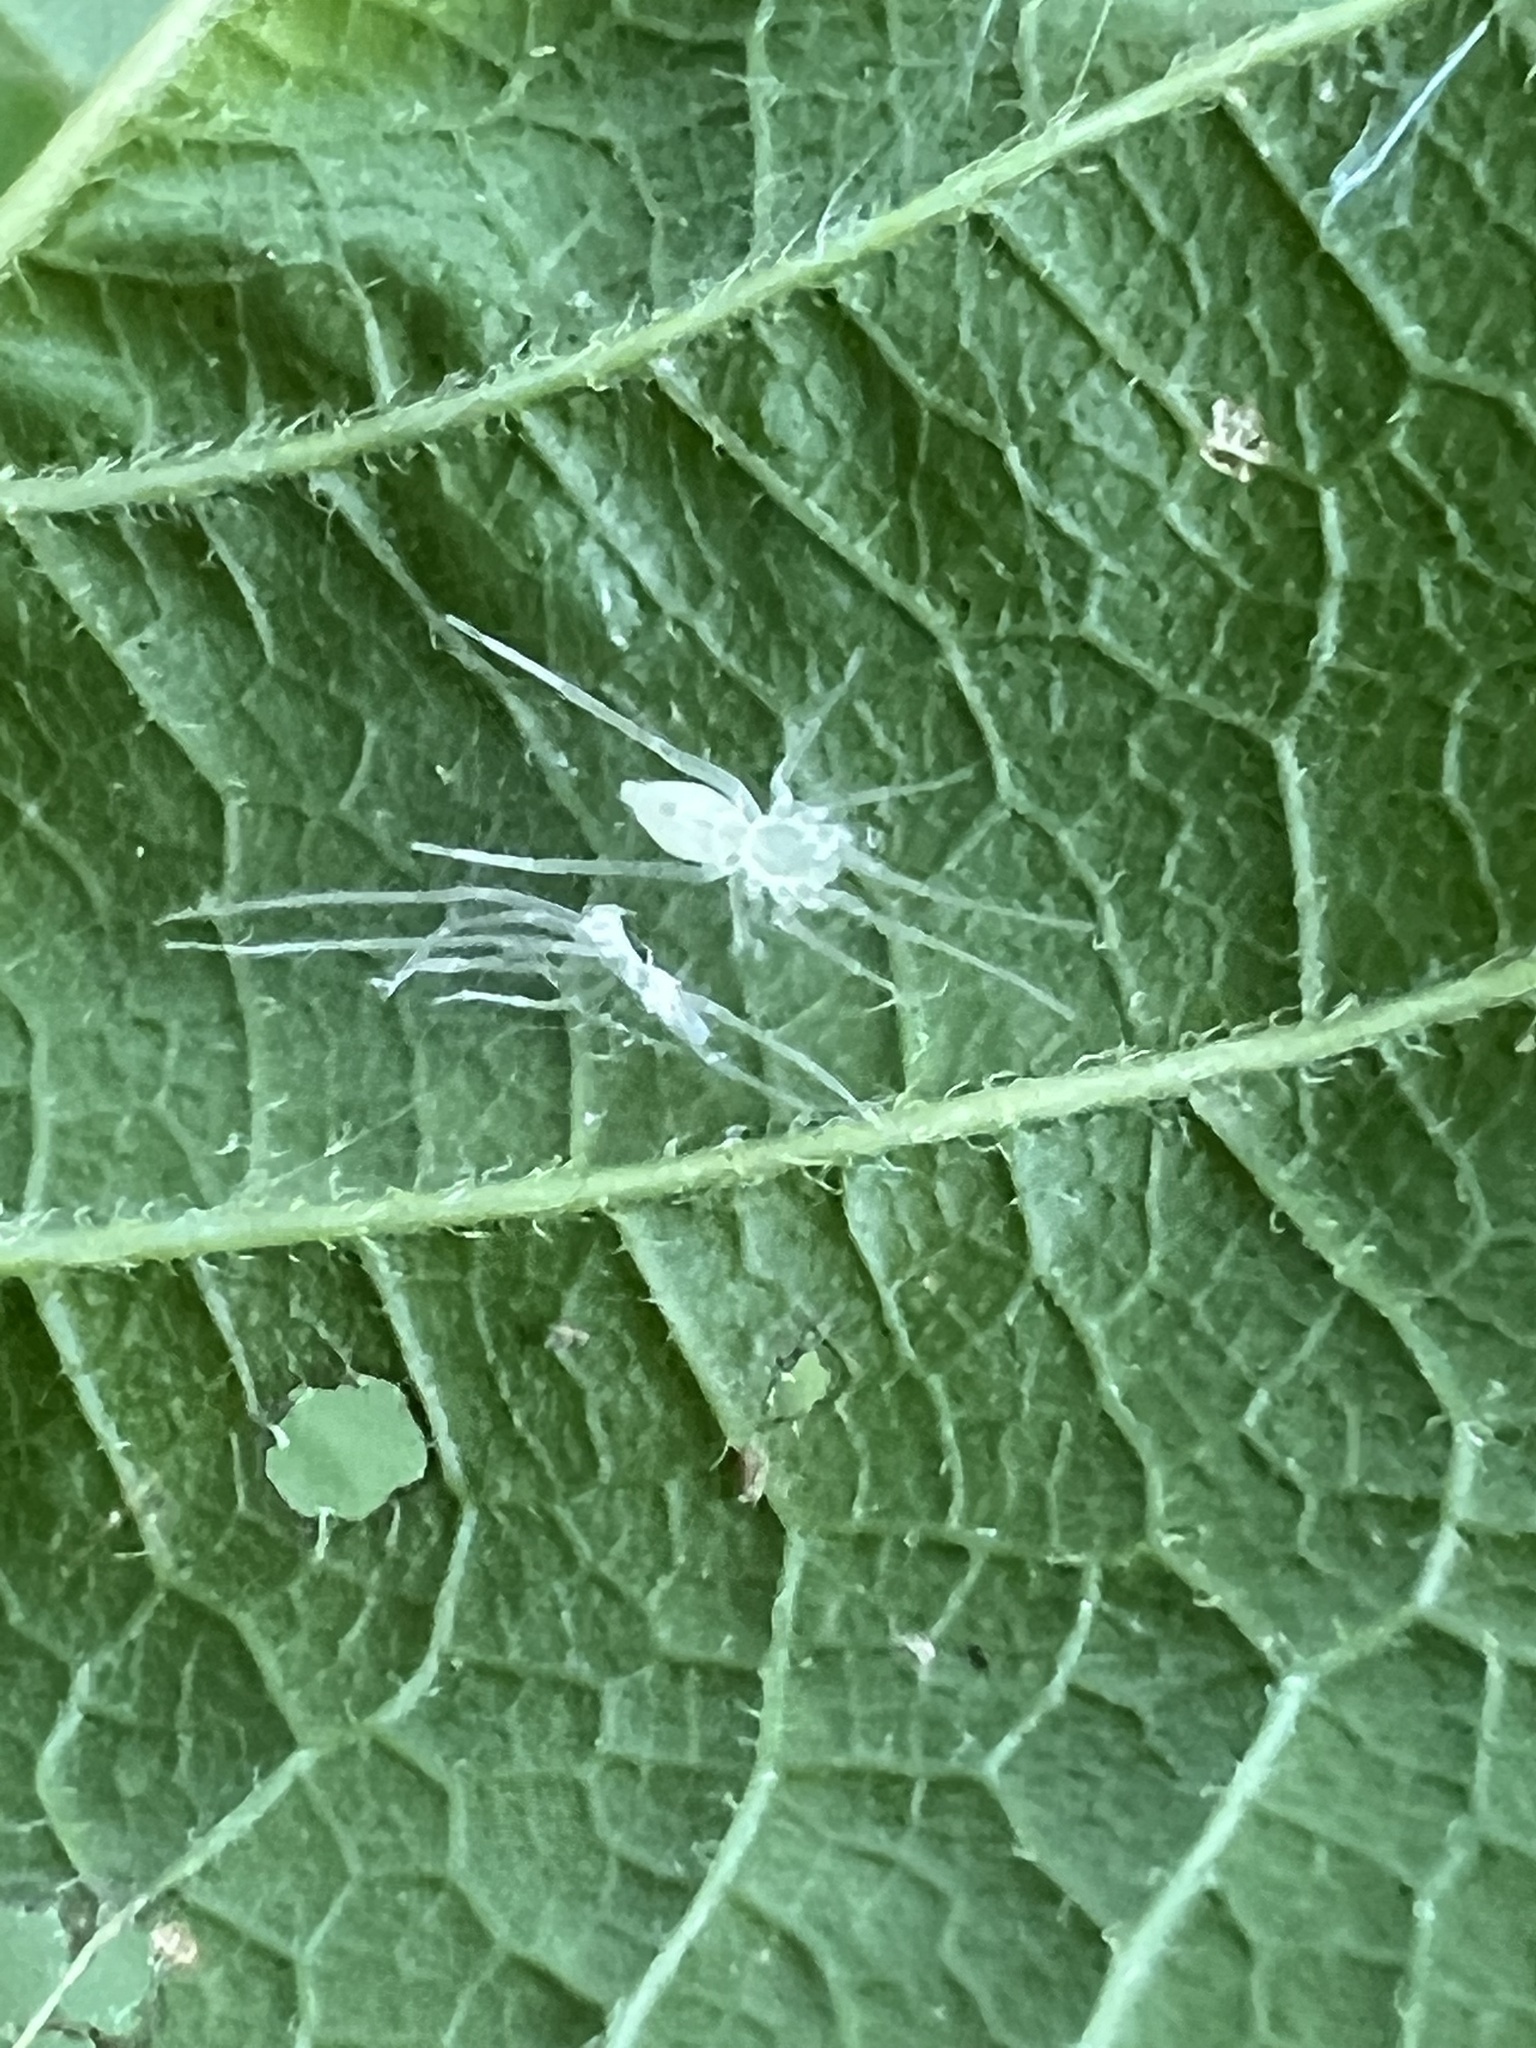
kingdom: Animalia
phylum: Arthropoda
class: Arachnida
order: Araneae
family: Anyphaenidae
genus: Wulfila
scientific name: Wulfila albens
